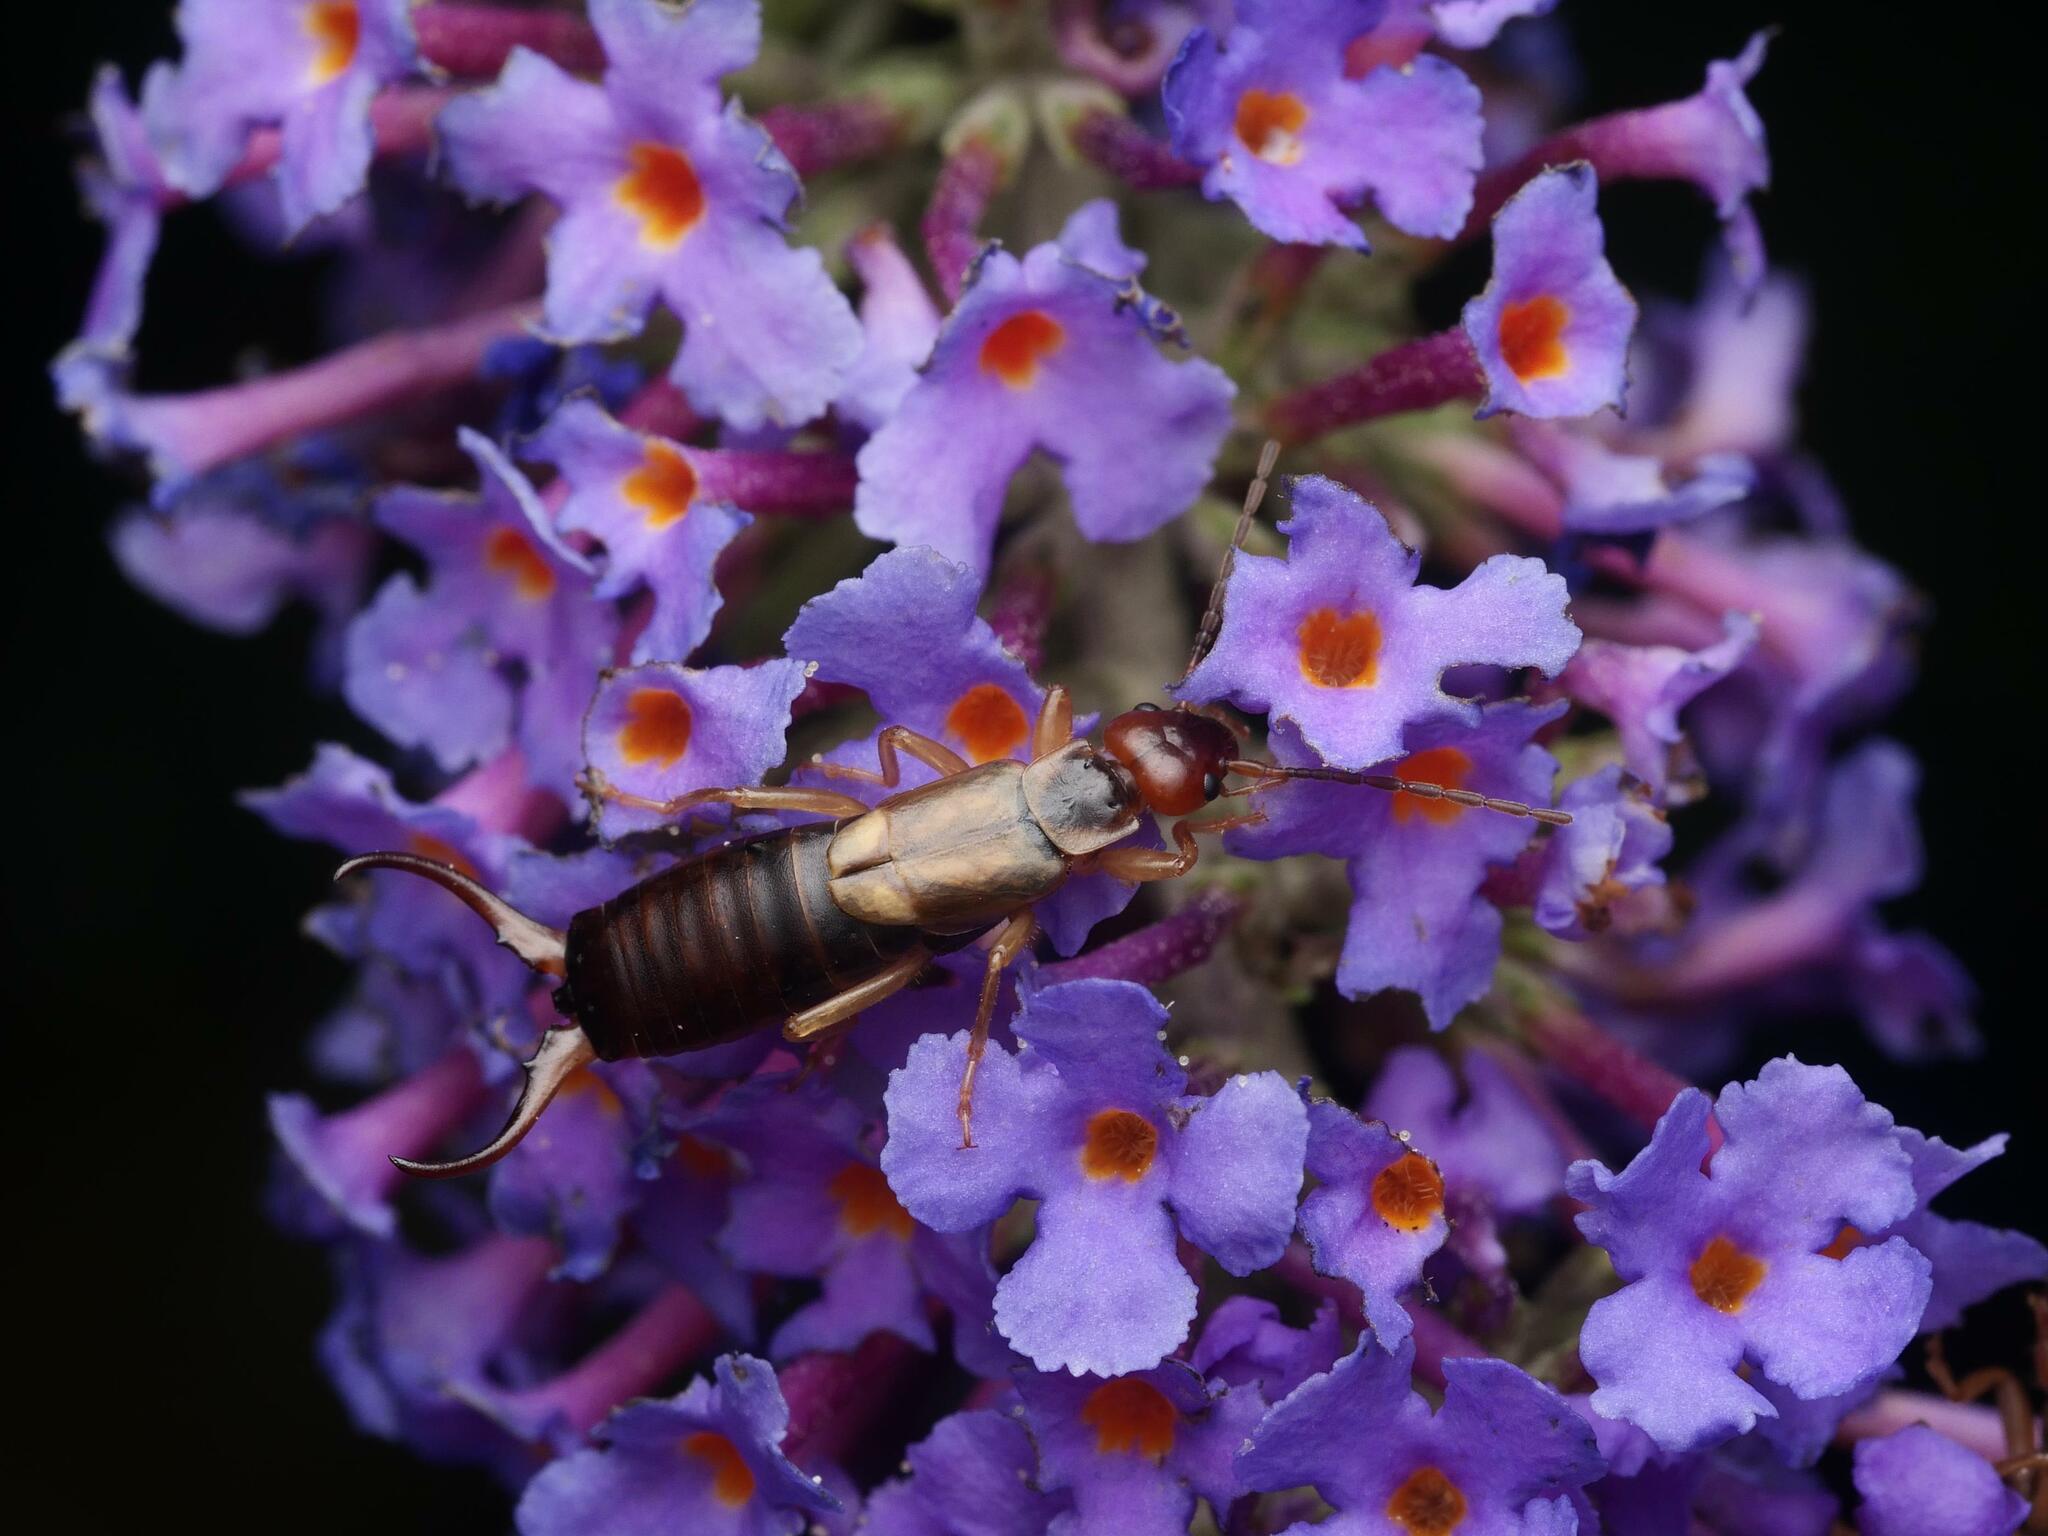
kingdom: Animalia
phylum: Arthropoda
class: Insecta
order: Dermaptera
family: Forficulidae
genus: Forficula
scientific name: Forficula
